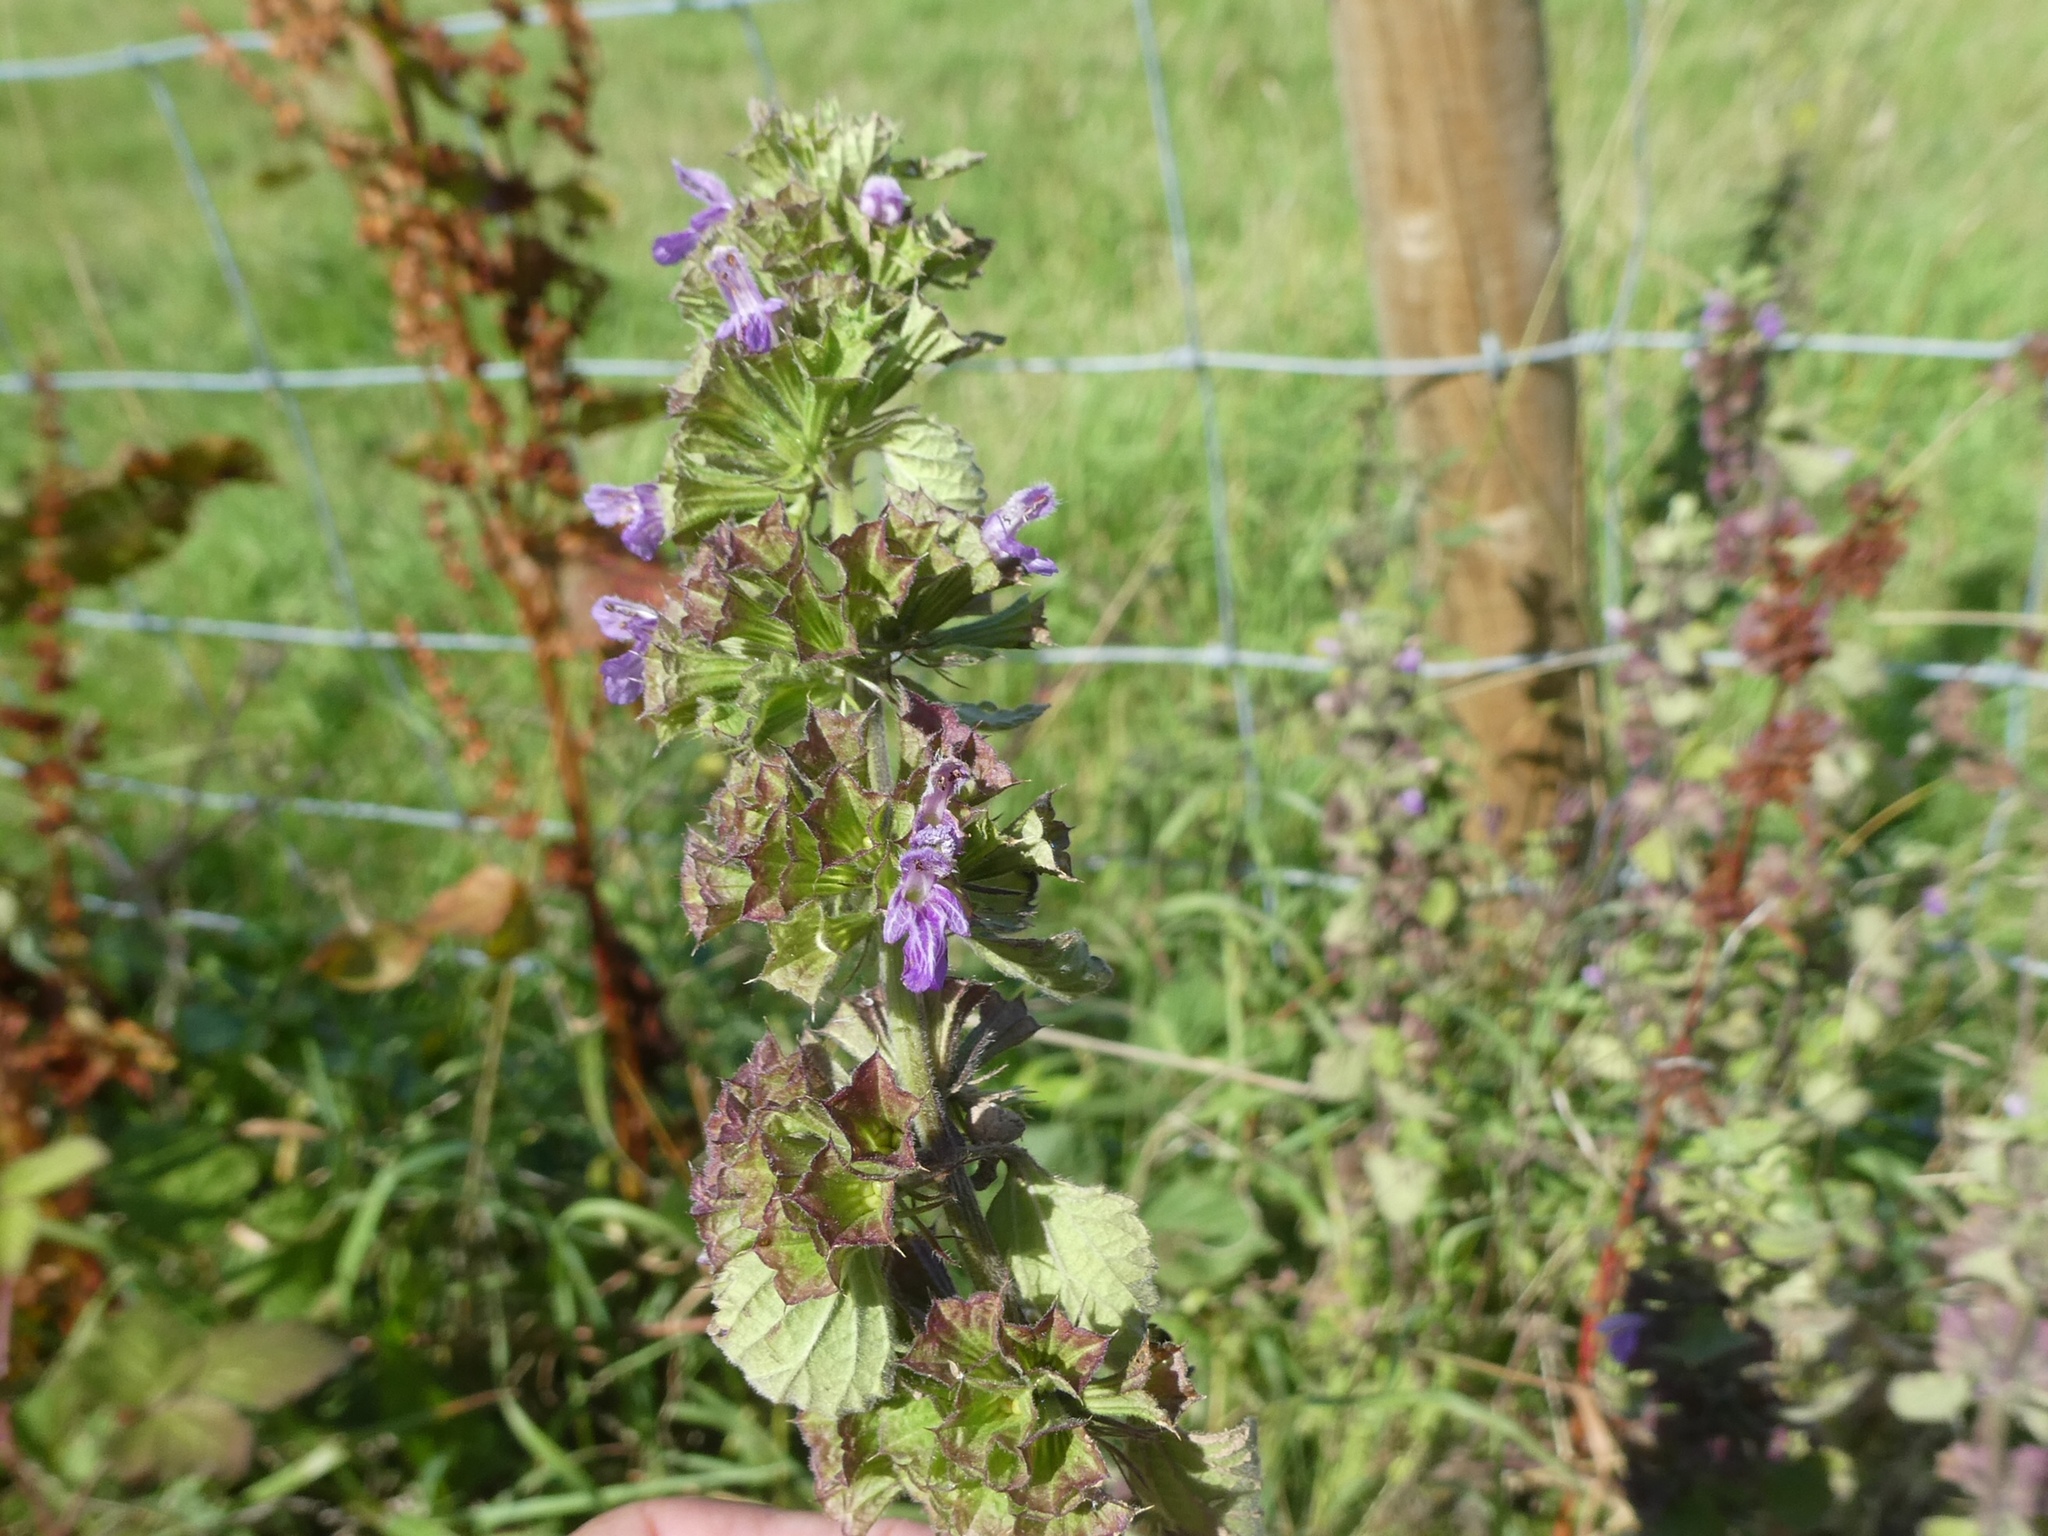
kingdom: Plantae
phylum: Tracheophyta
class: Magnoliopsida
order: Lamiales
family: Lamiaceae
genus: Ballota
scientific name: Ballota nigra
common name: Black horehound
